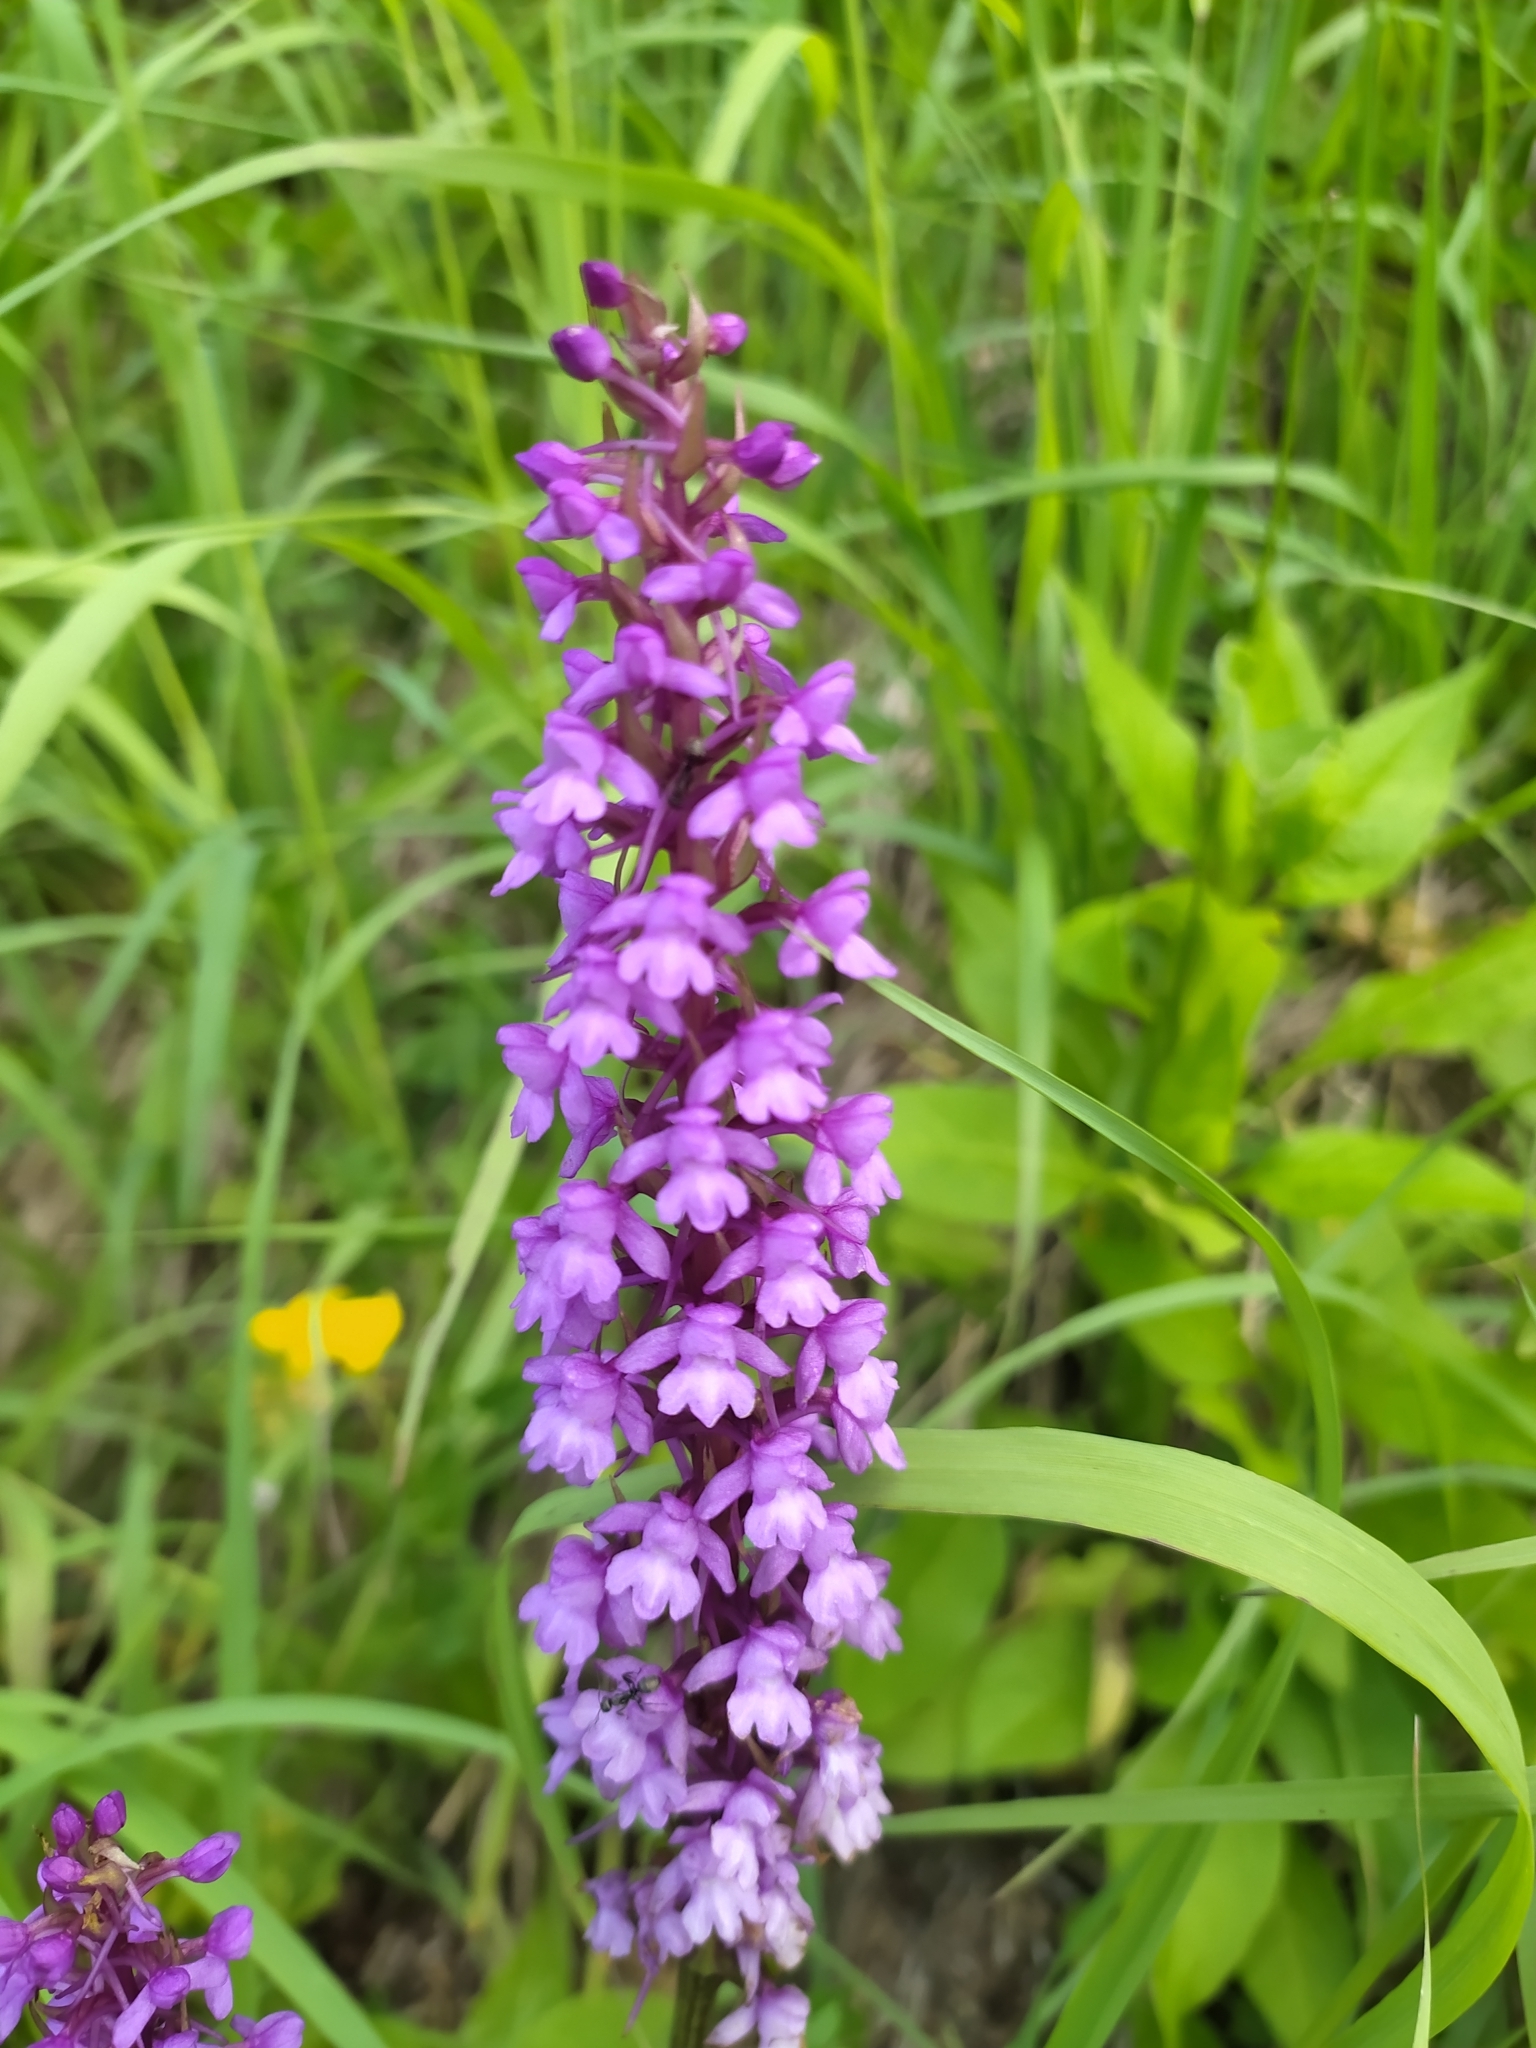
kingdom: Plantae
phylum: Tracheophyta
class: Liliopsida
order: Asparagales
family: Orchidaceae
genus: Gymnadenia
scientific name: Gymnadenia conopsea
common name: Fragrant orchid
